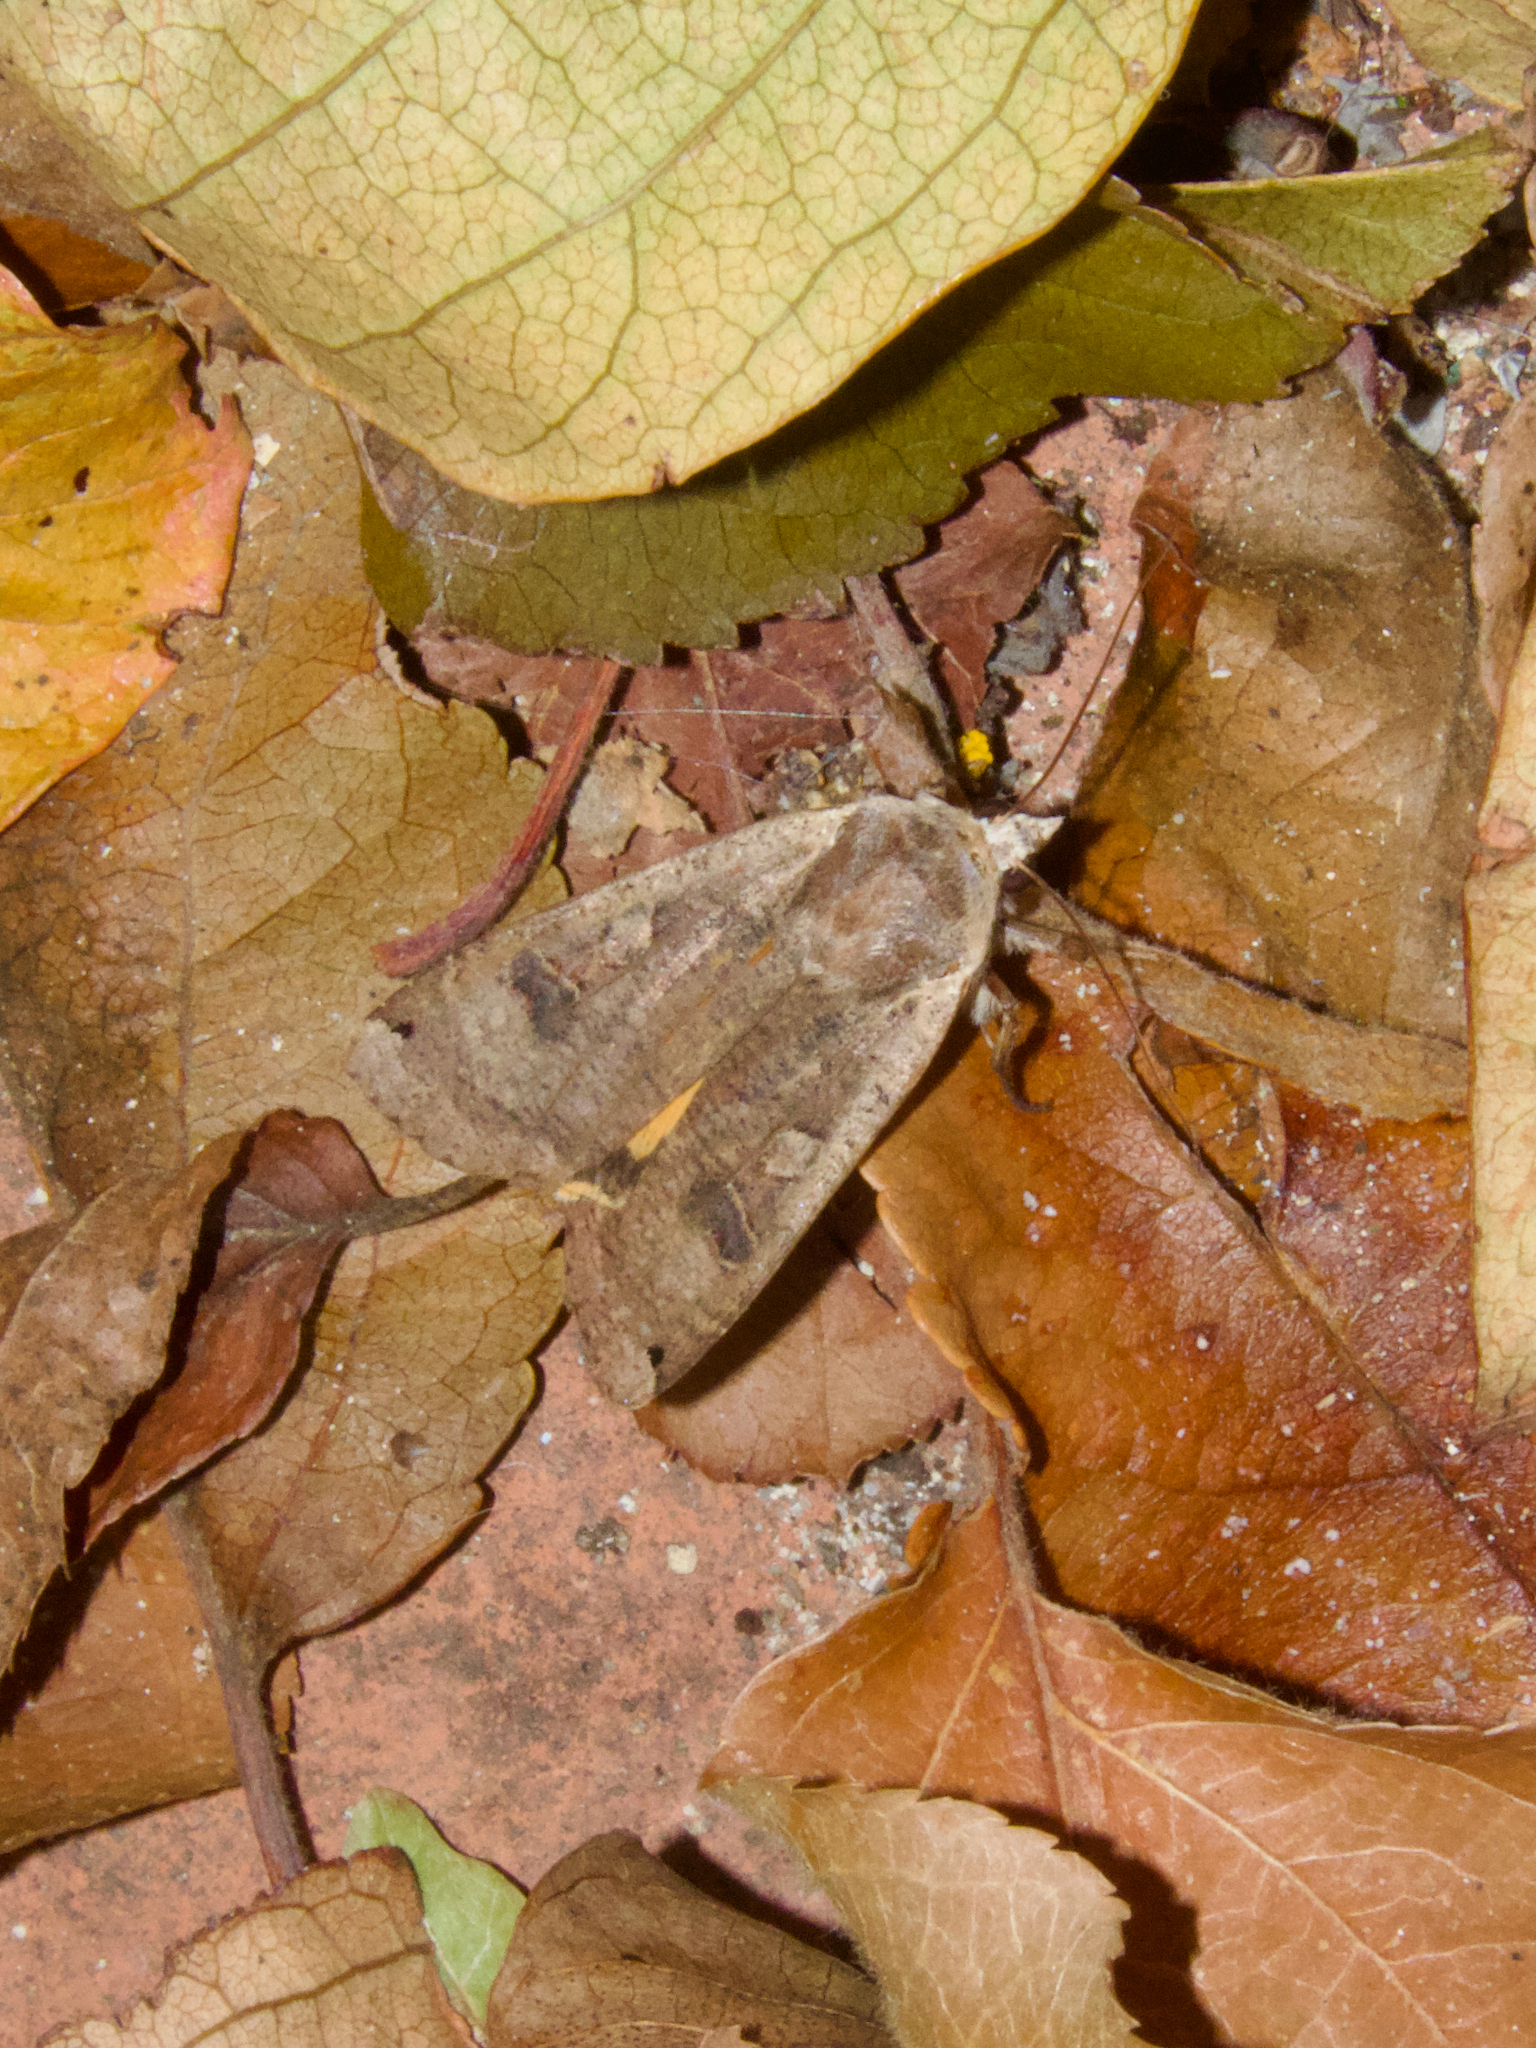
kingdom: Animalia
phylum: Arthropoda
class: Insecta
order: Lepidoptera
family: Noctuidae
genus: Noctua
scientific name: Noctua pronuba
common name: Large yellow underwing
